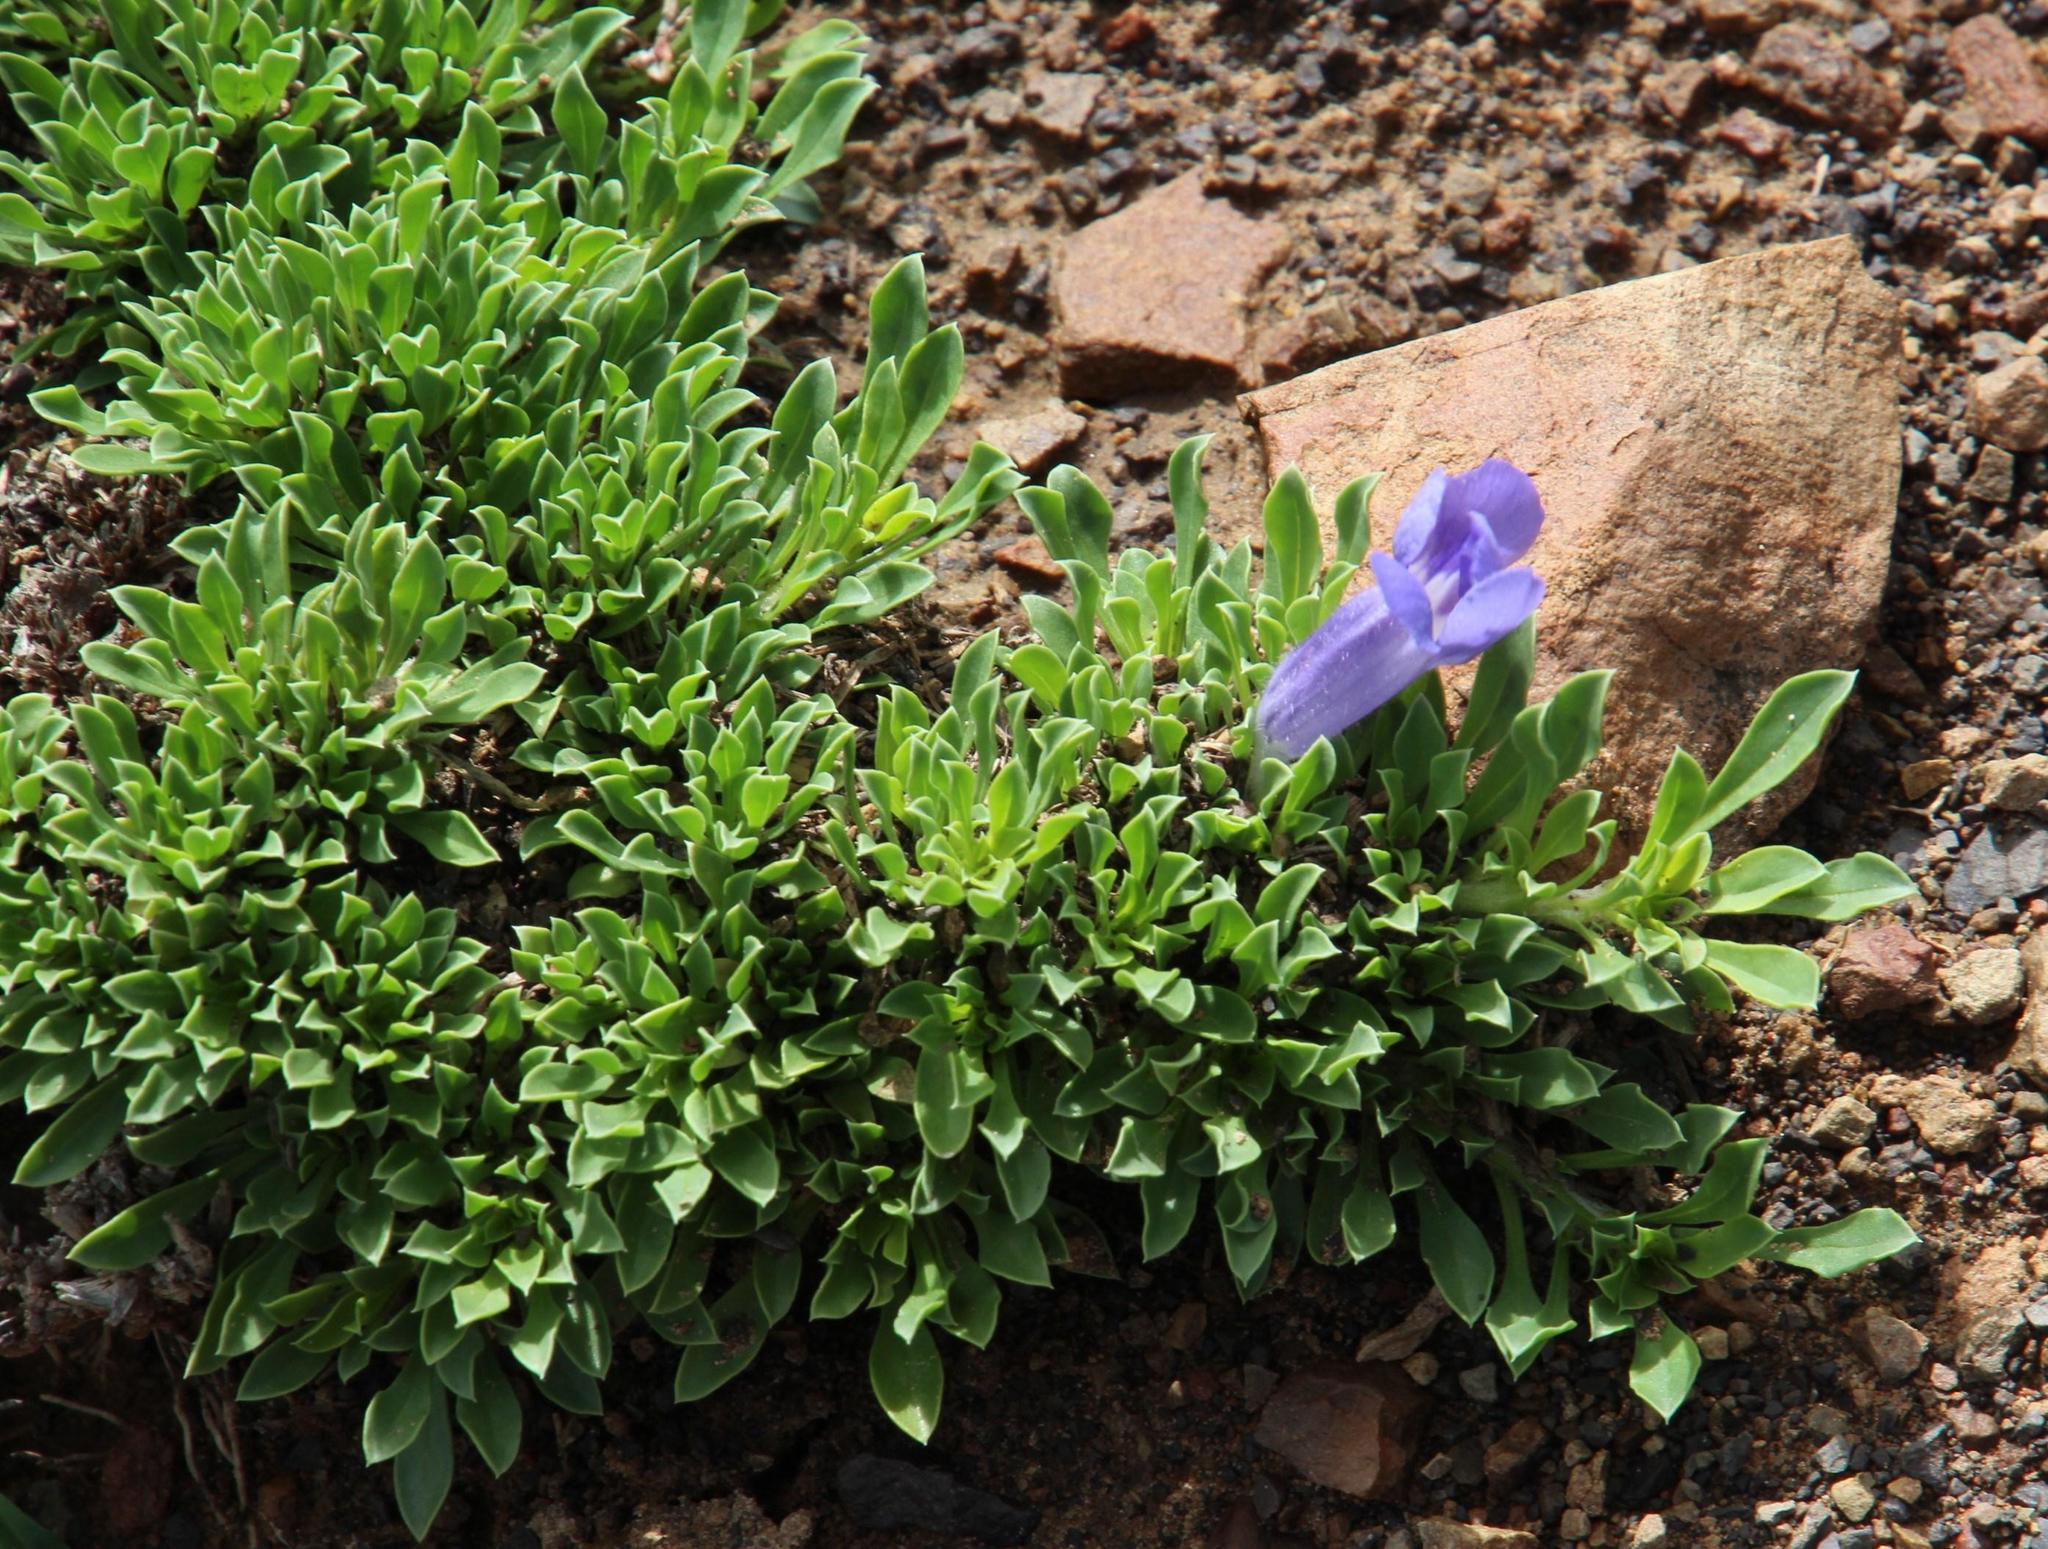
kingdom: Plantae
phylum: Tracheophyta
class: Magnoliopsida
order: Lamiales
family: Scrophulariaceae
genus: Aptosimum
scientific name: Aptosimum procumbens
